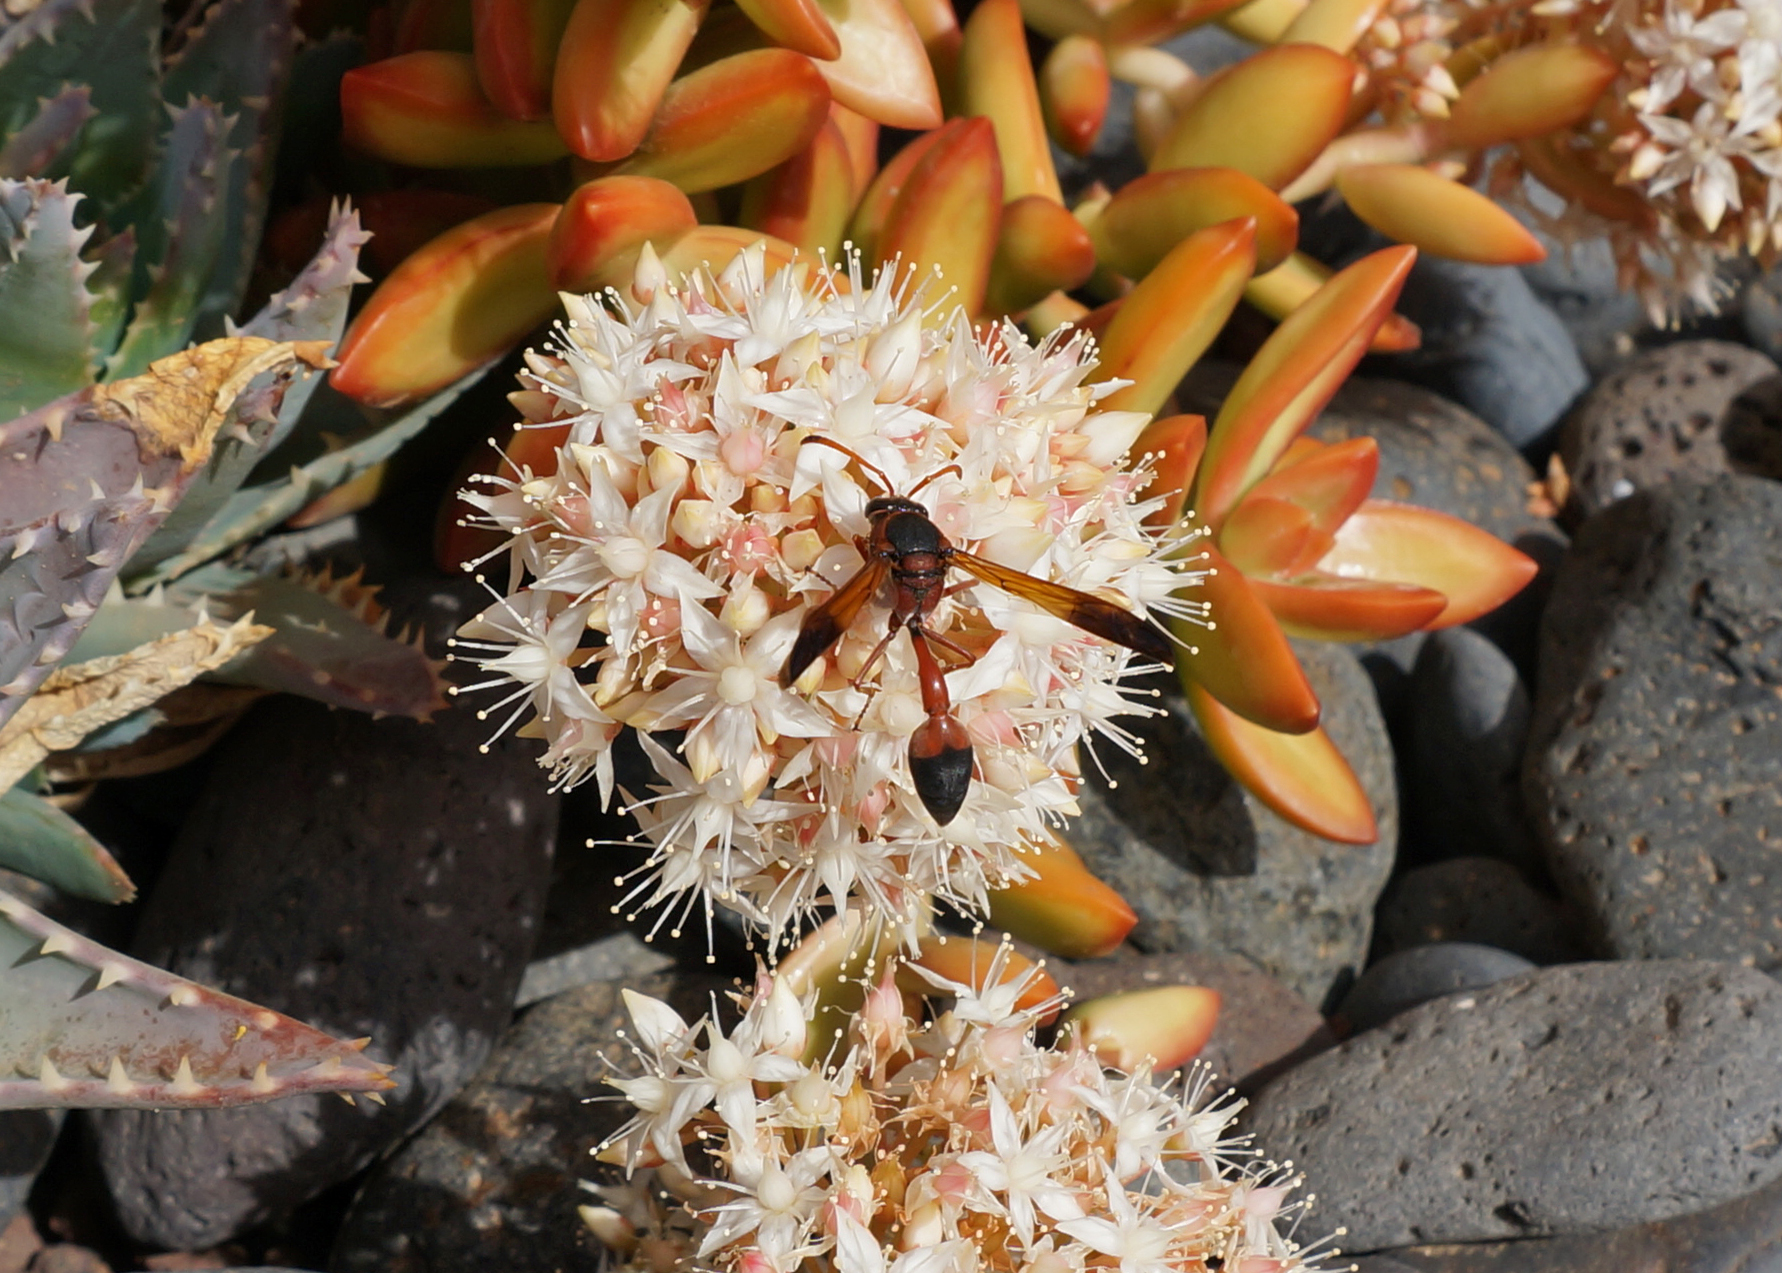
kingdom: Animalia
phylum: Arthropoda
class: Insecta
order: Hymenoptera
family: Eumenidae
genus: Delta
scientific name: Delta dimidiatipenne
